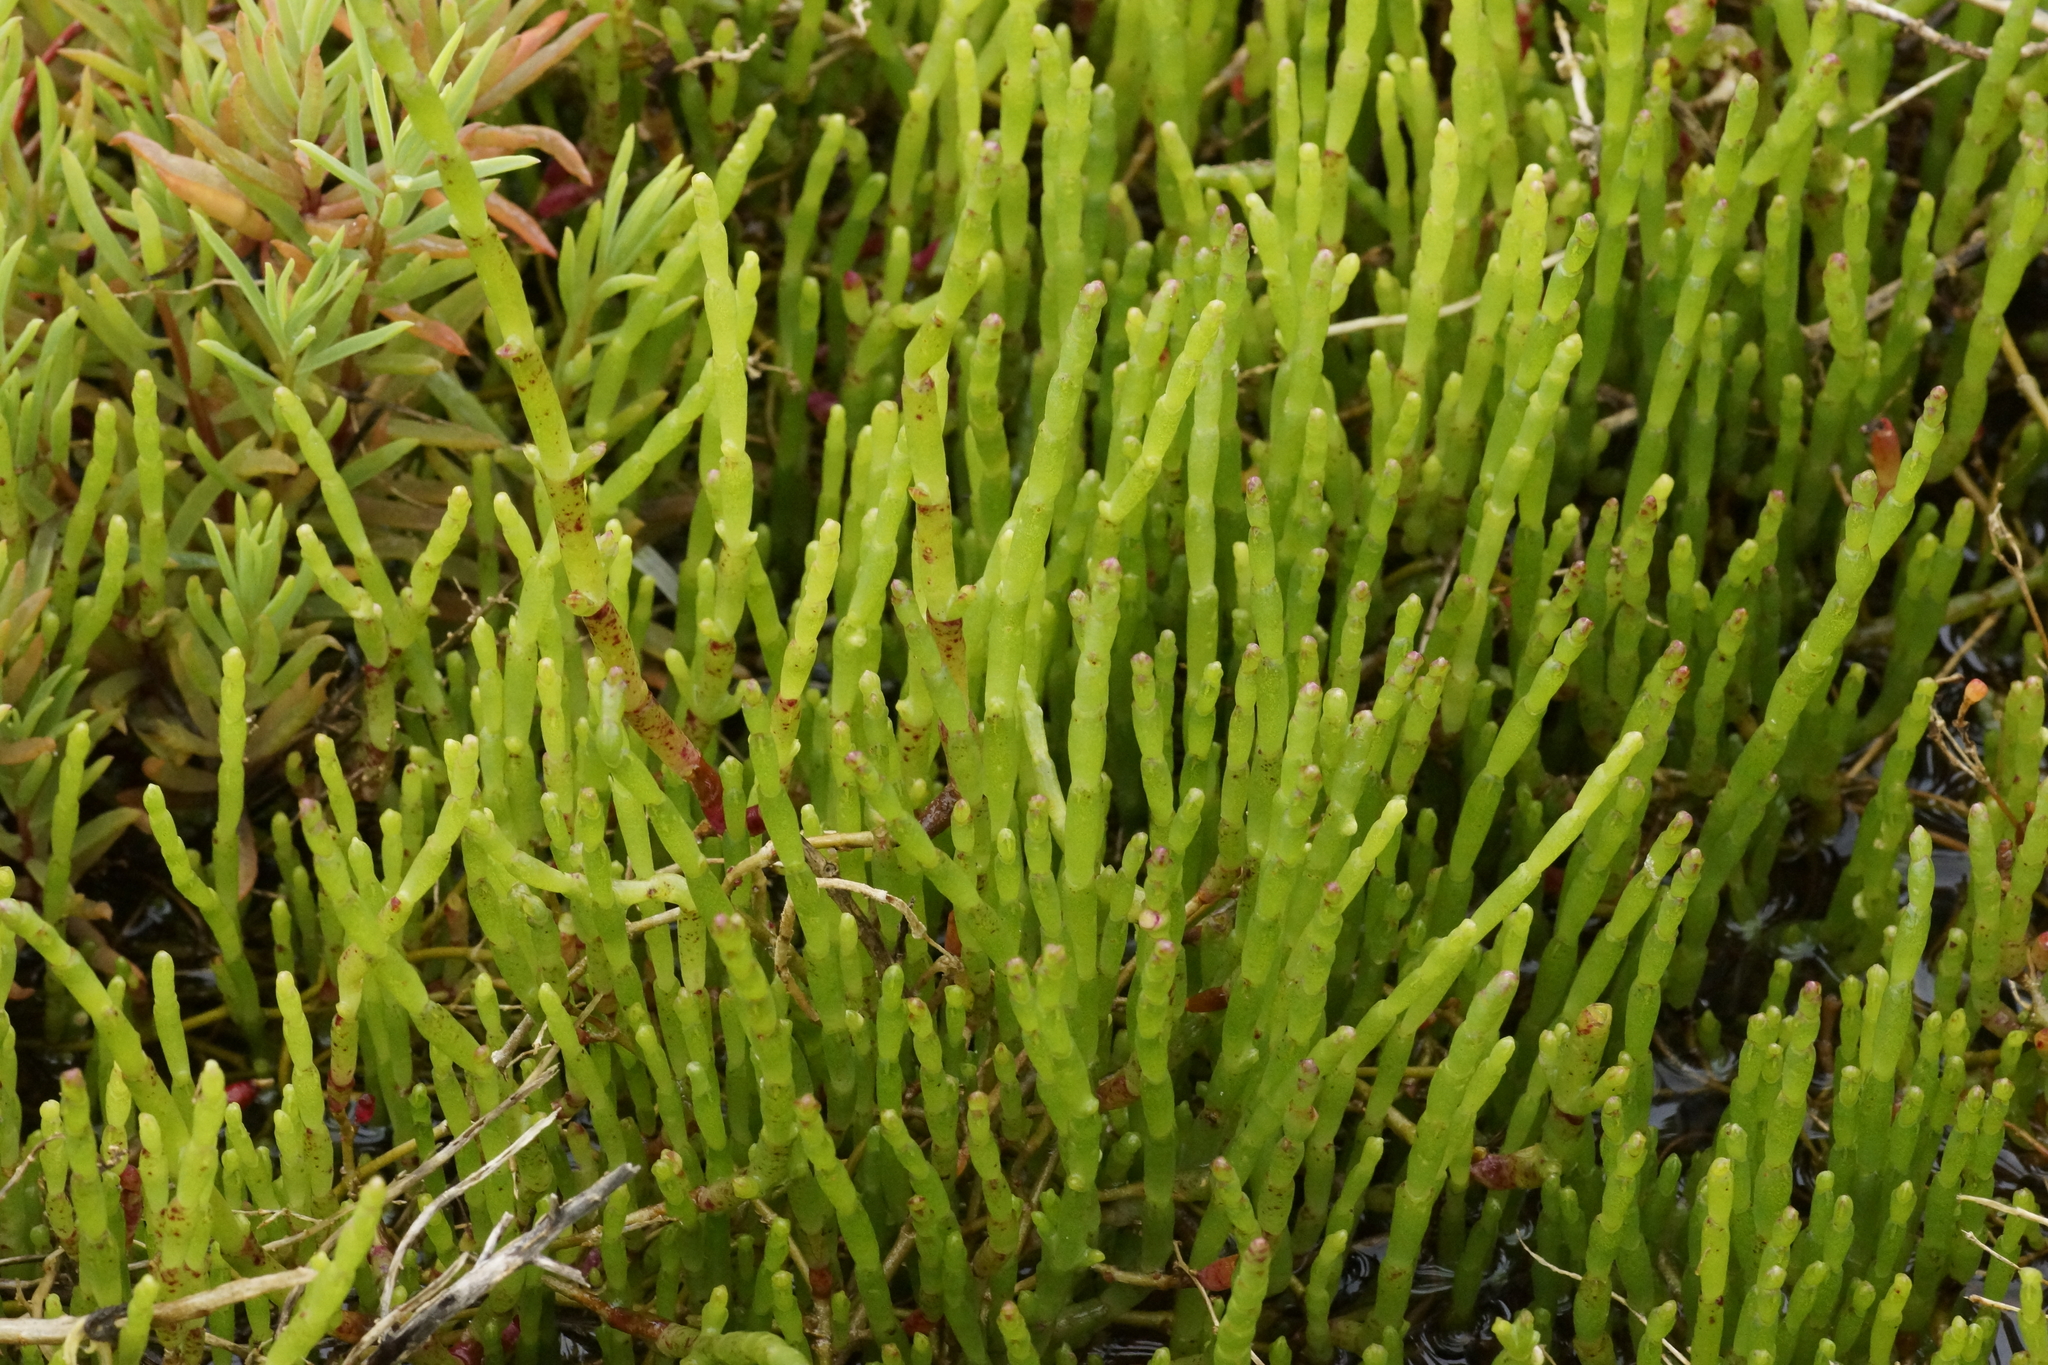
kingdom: Plantae
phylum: Tracheophyta
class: Magnoliopsida
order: Caryophyllales
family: Amaranthaceae
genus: Salicornia
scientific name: Salicornia quinqueflora
